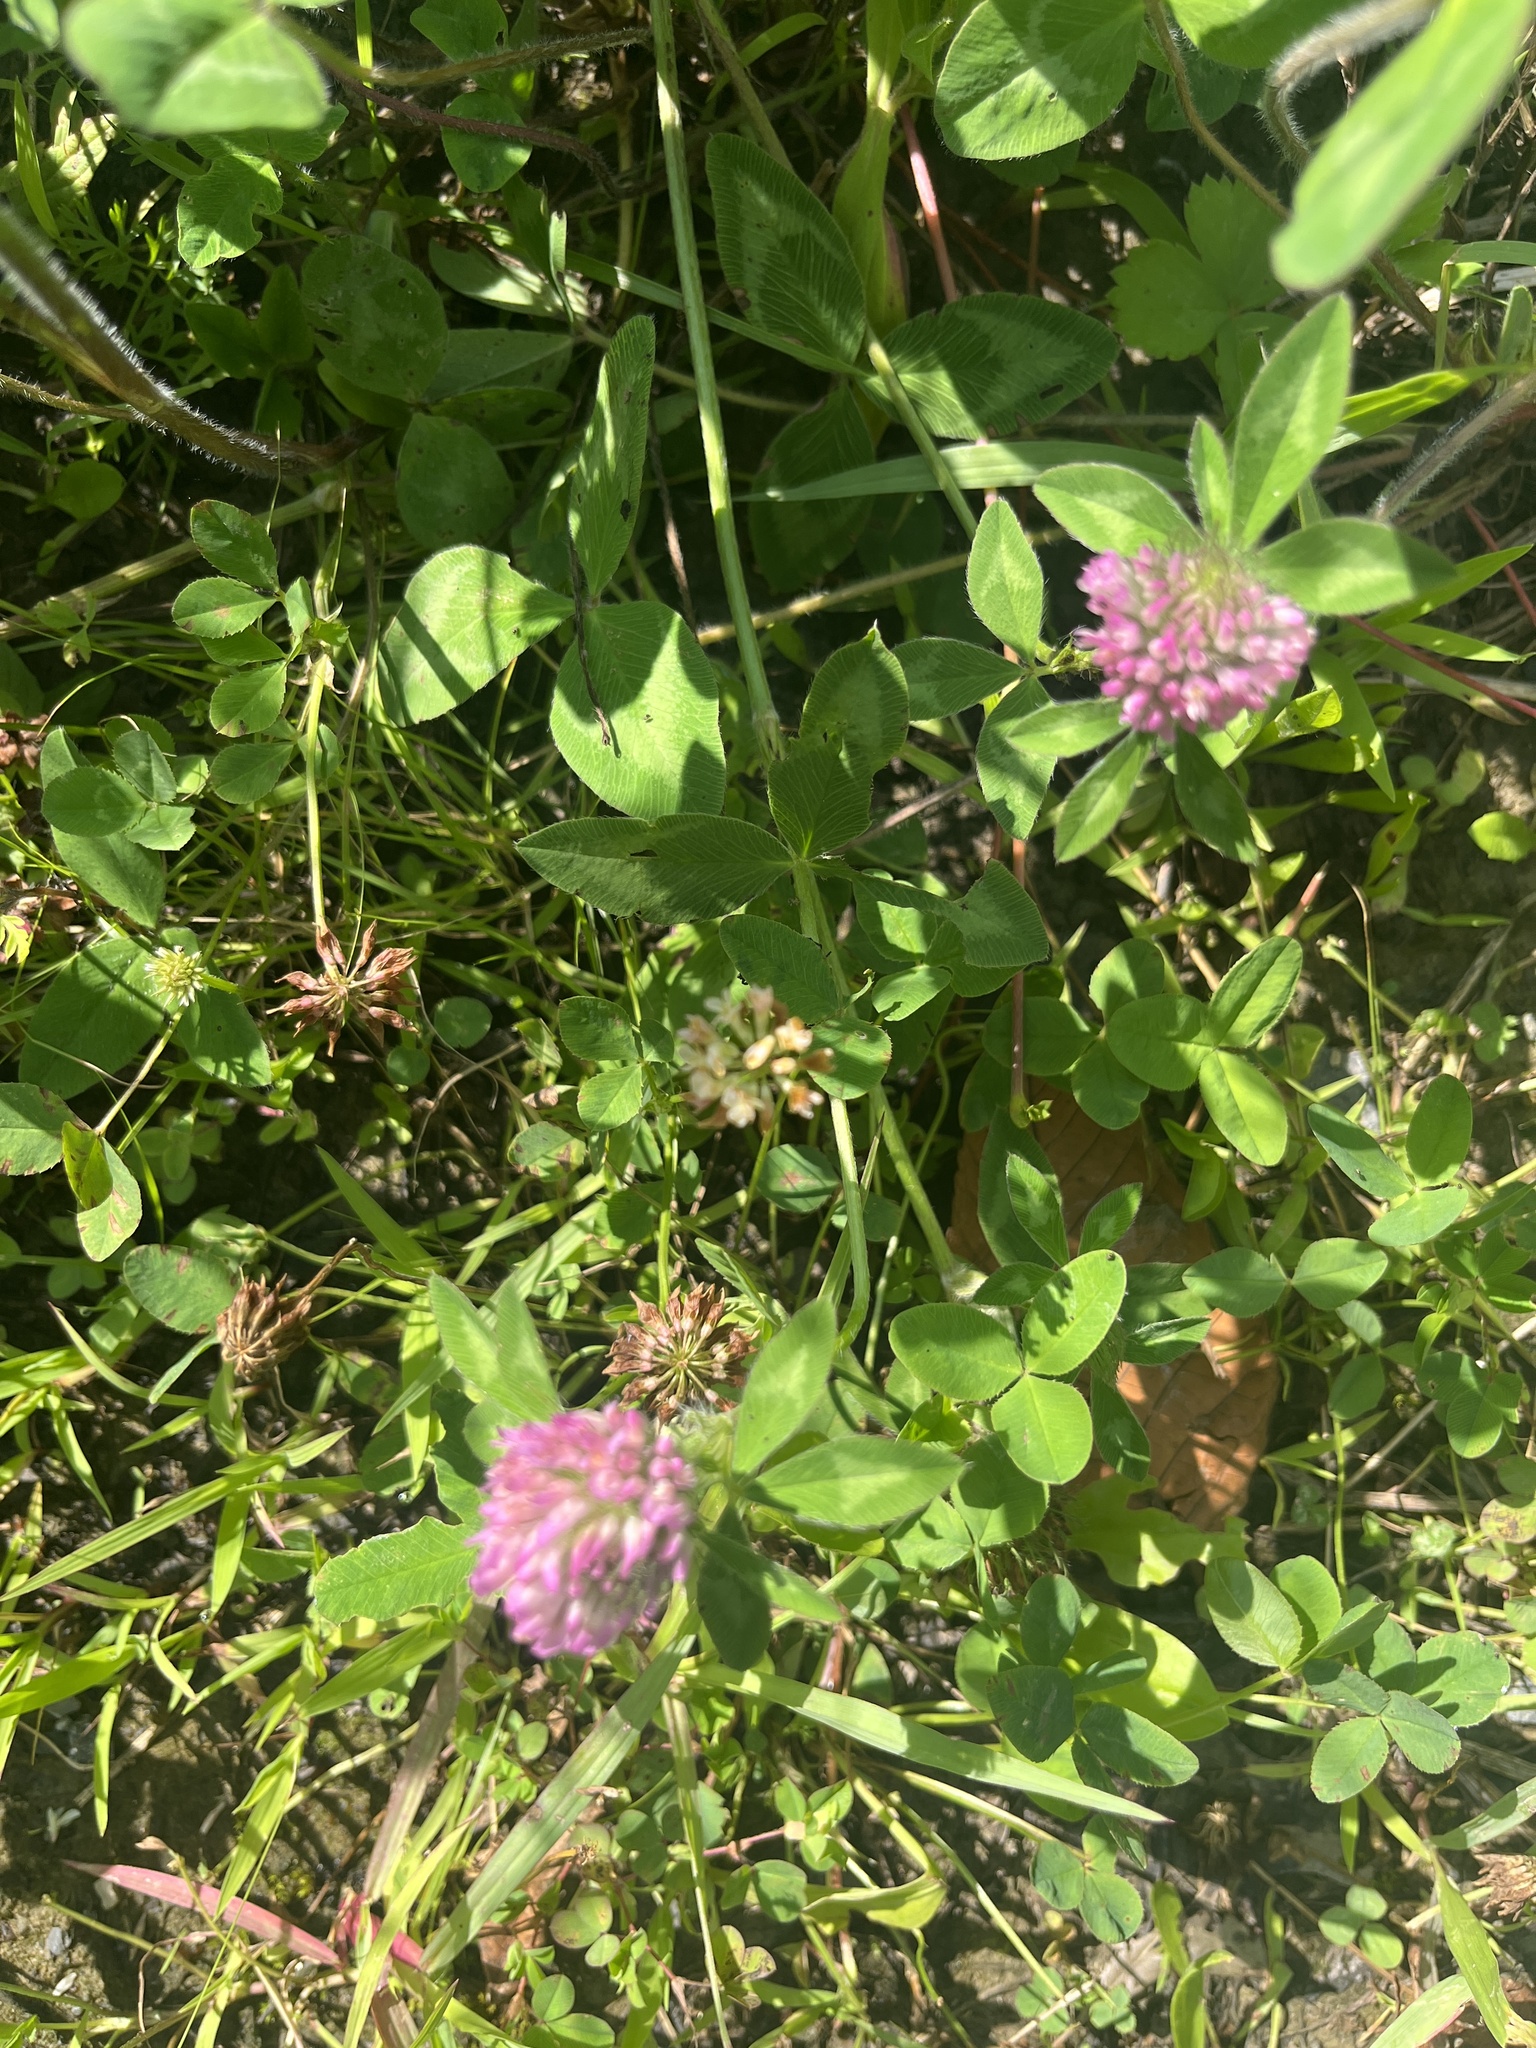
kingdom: Plantae
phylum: Tracheophyta
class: Magnoliopsida
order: Fabales
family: Fabaceae
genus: Trifolium
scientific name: Trifolium pratense
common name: Red clover
